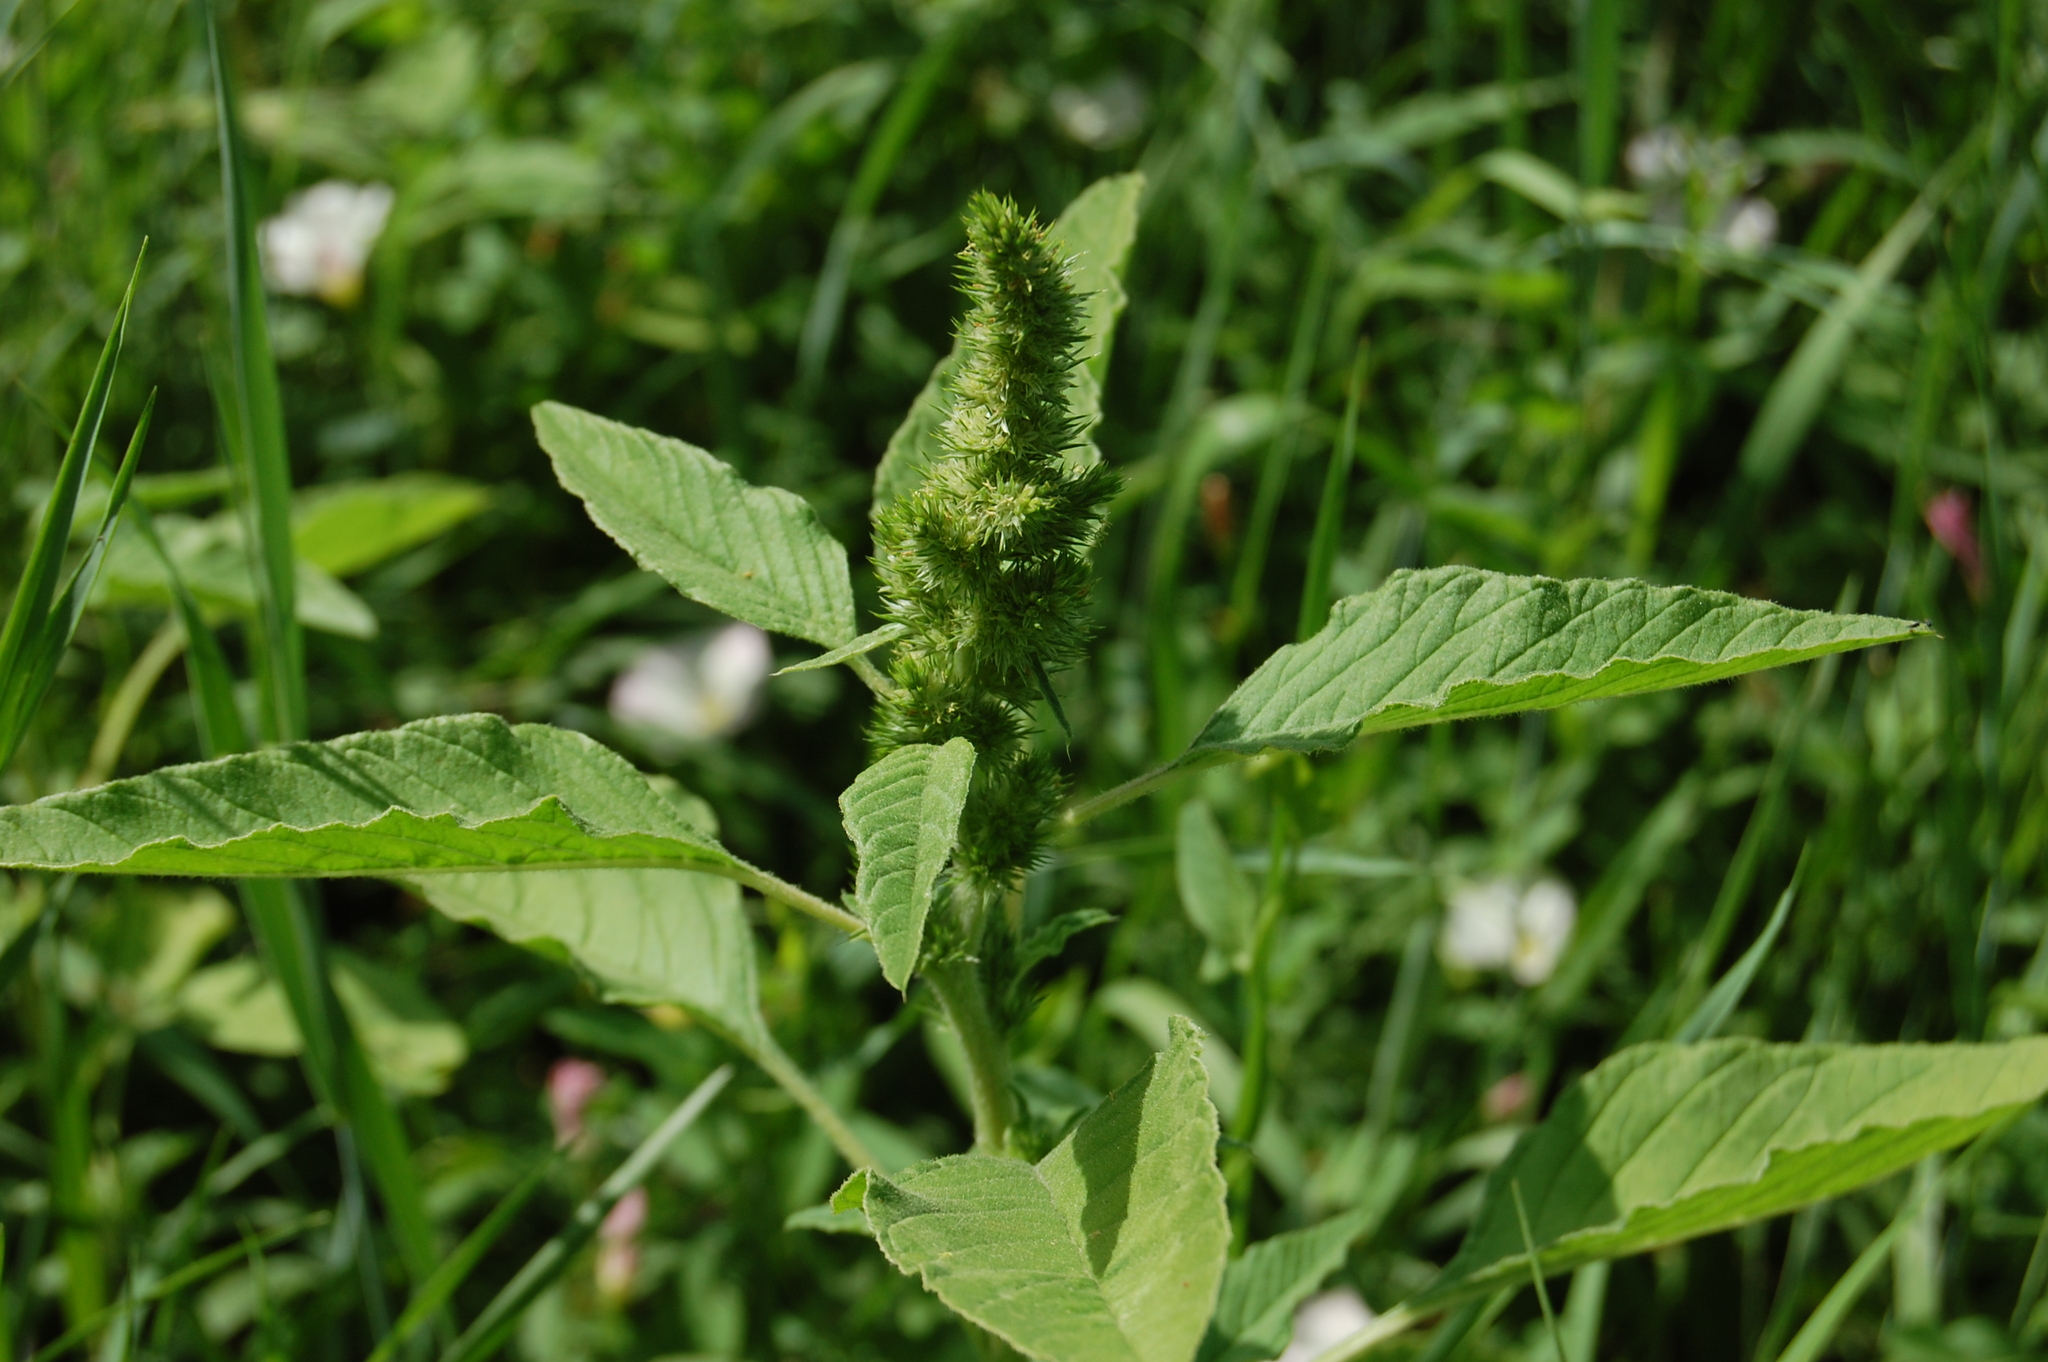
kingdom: Plantae
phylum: Tracheophyta
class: Magnoliopsida
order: Caryophyllales
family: Amaranthaceae
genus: Amaranthus
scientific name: Amaranthus retroflexus
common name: Redroot amaranth
